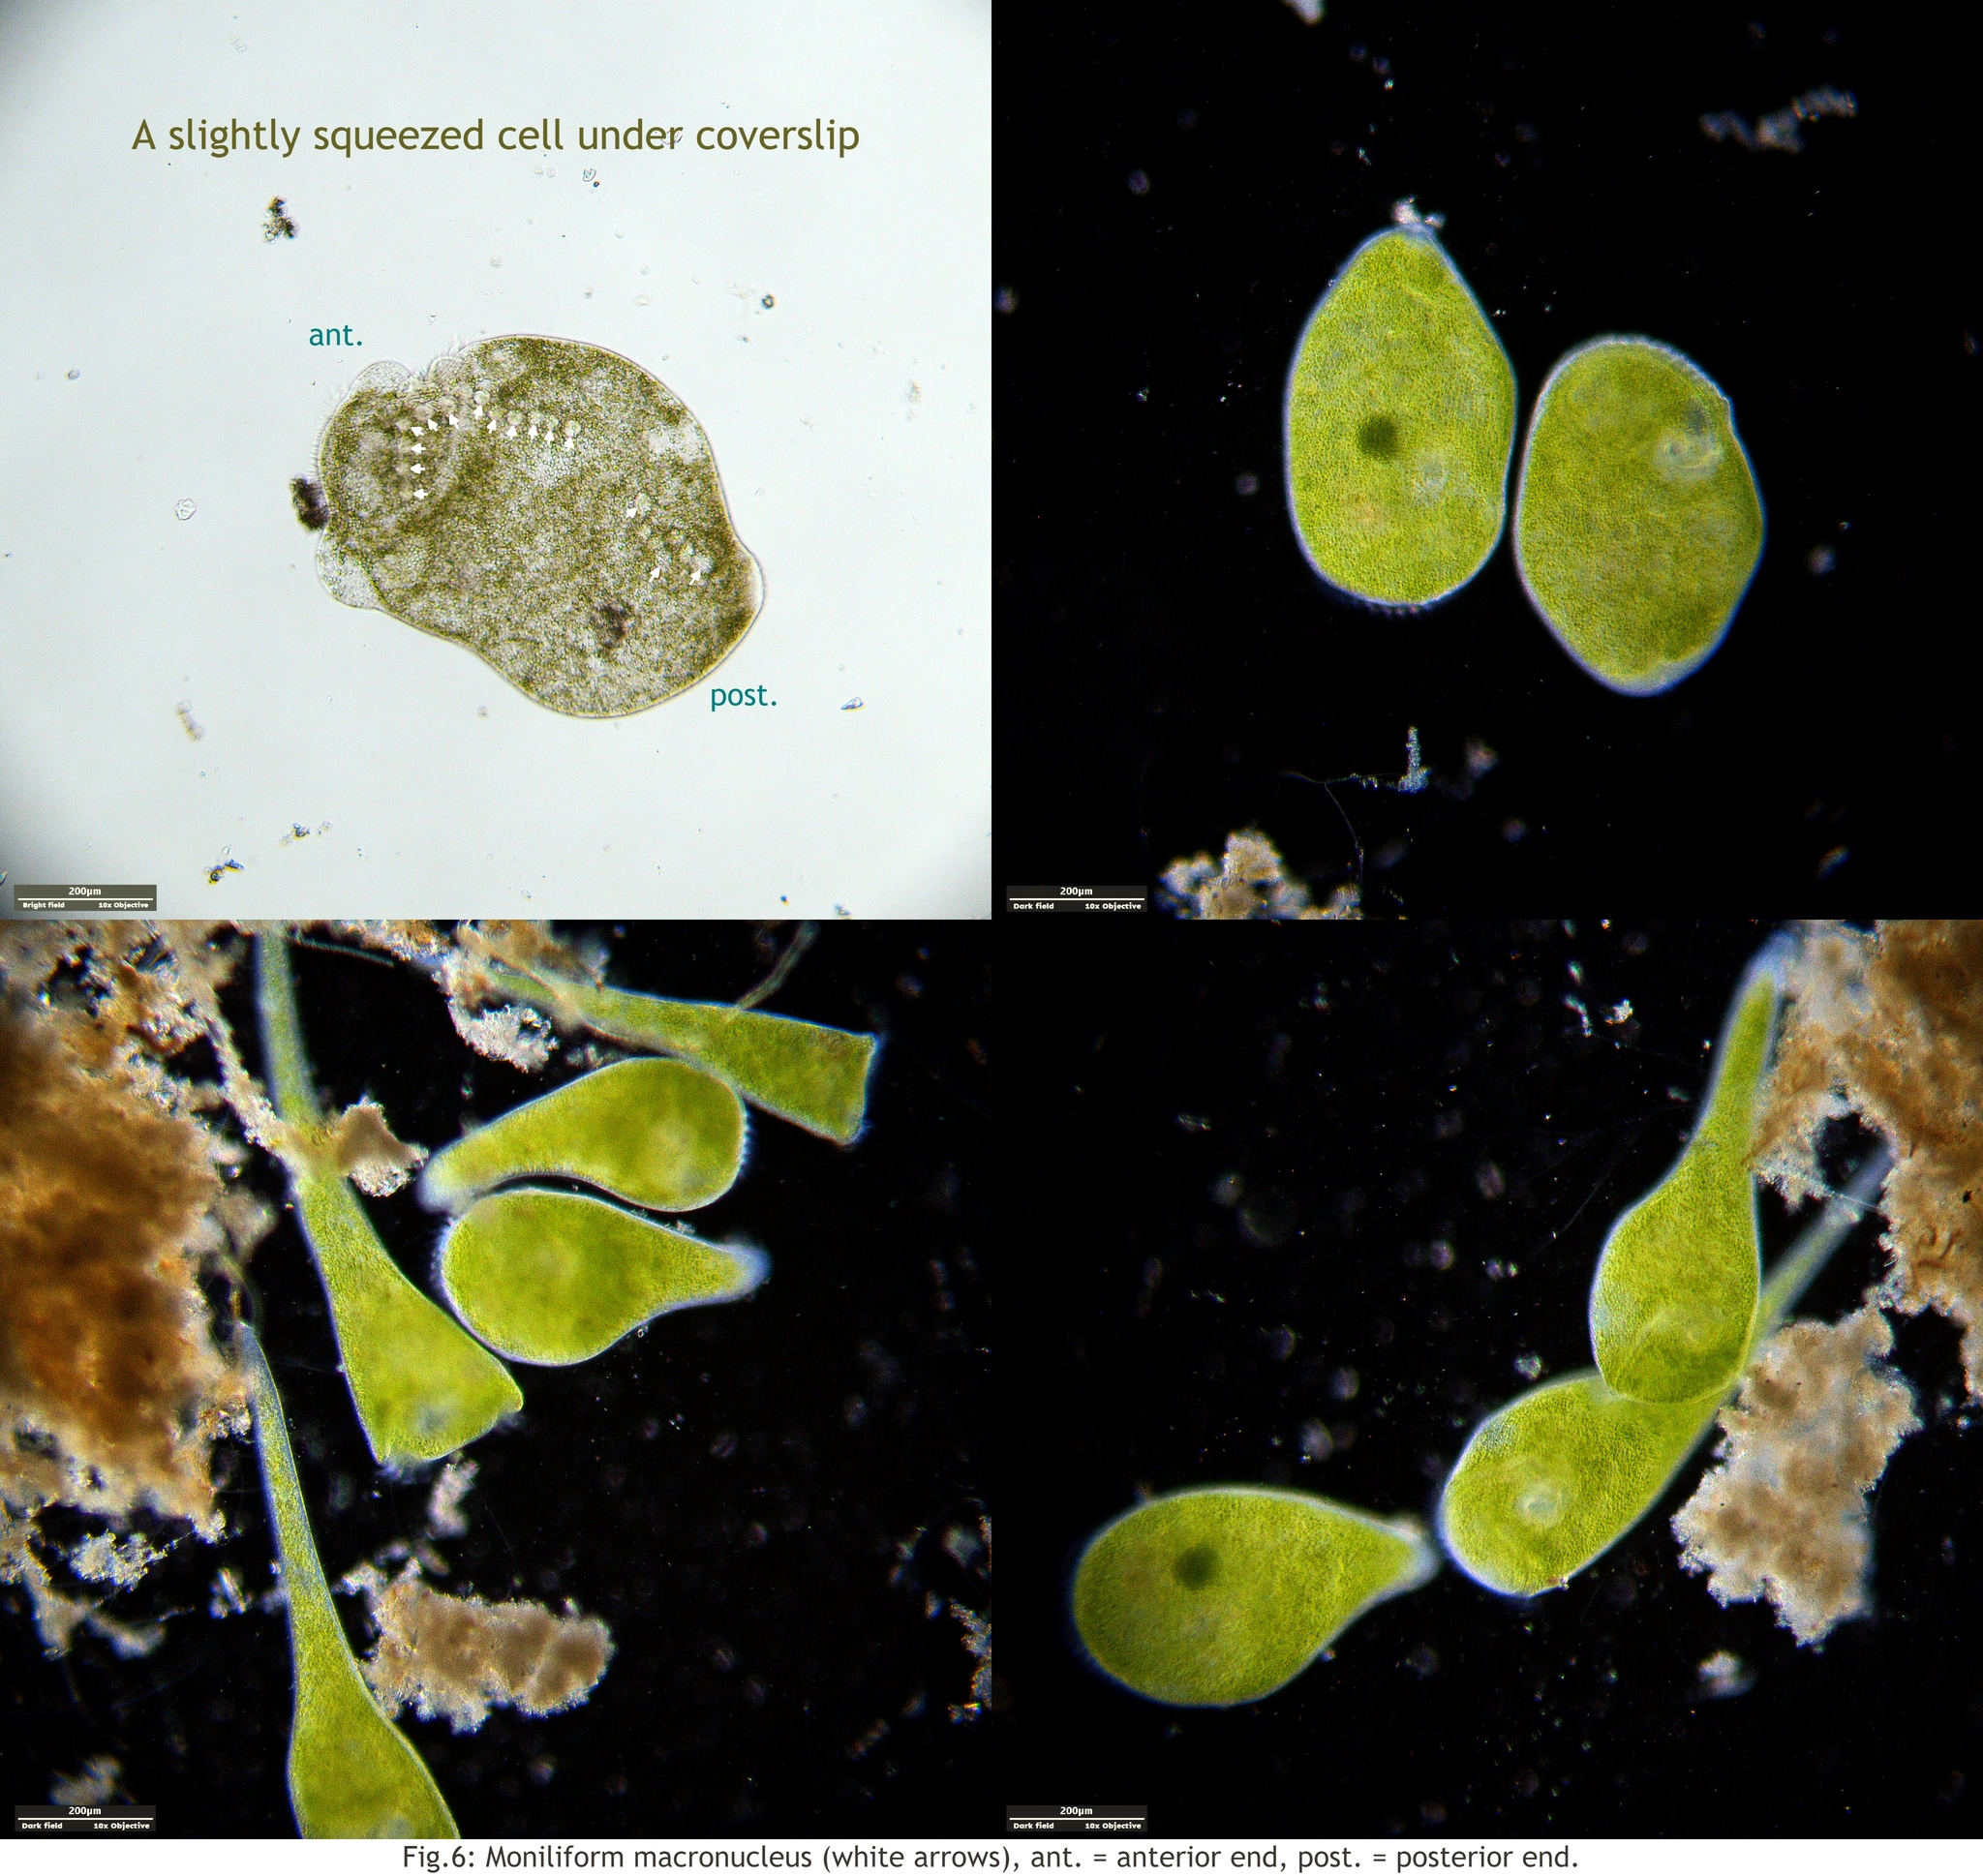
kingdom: Chromista
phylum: Ciliophora
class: Heterotrichea
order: Heterotrichida
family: Stentoridae
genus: Stentor
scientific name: Stentor polymorphus
